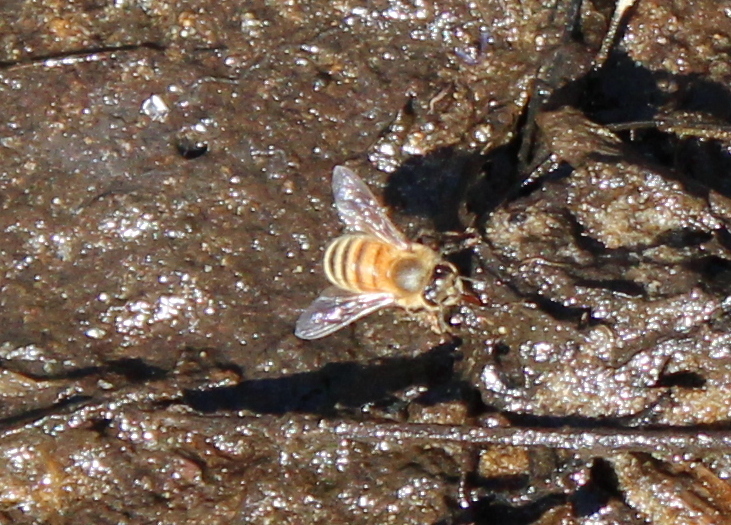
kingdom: Animalia
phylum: Arthropoda
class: Insecta
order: Hymenoptera
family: Apidae
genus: Apis
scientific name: Apis mellifera
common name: Honey bee
